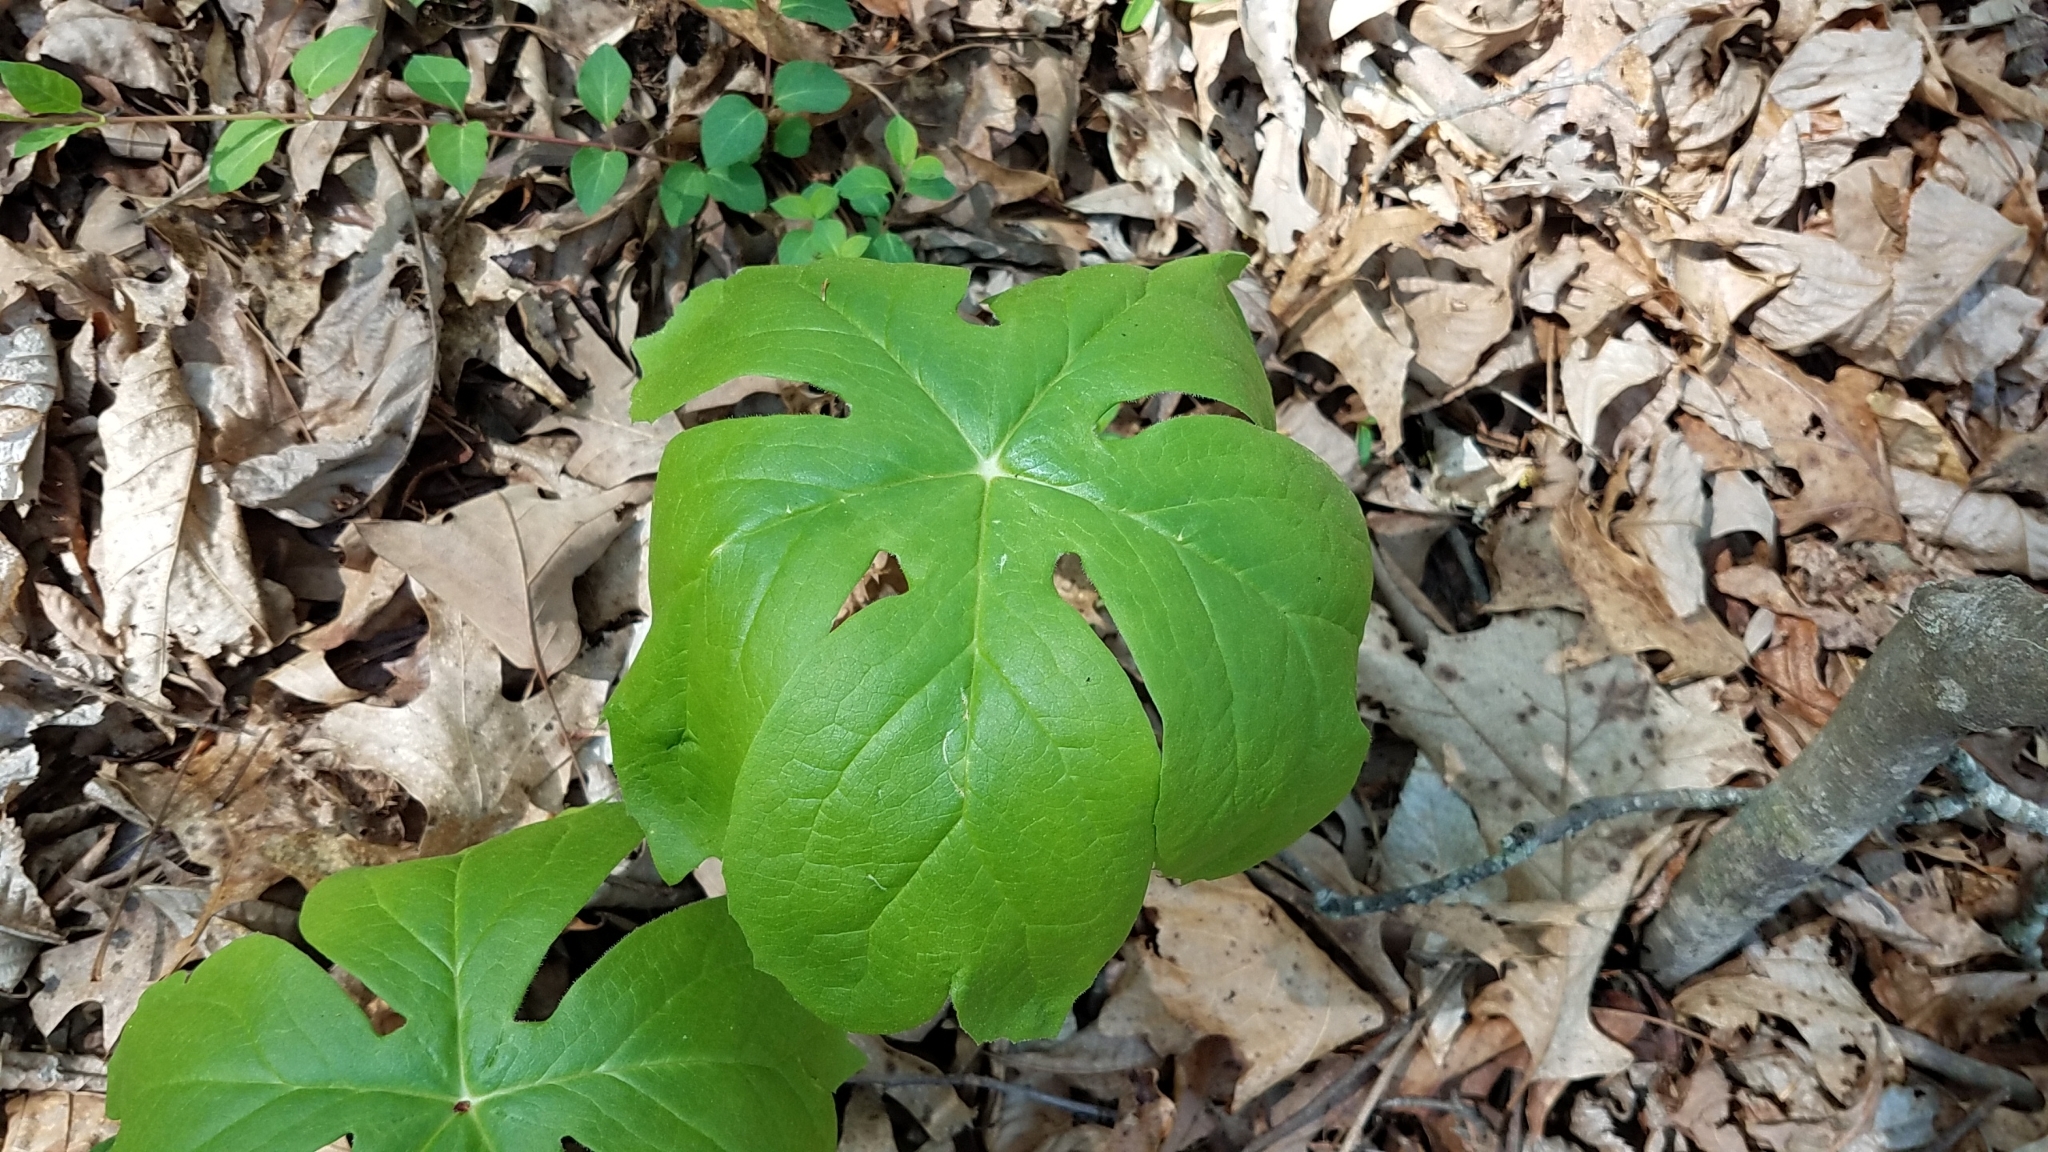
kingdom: Plantae
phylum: Tracheophyta
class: Magnoliopsida
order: Ranunculales
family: Berberidaceae
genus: Podophyllum
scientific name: Podophyllum peltatum
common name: Wild mandrake
